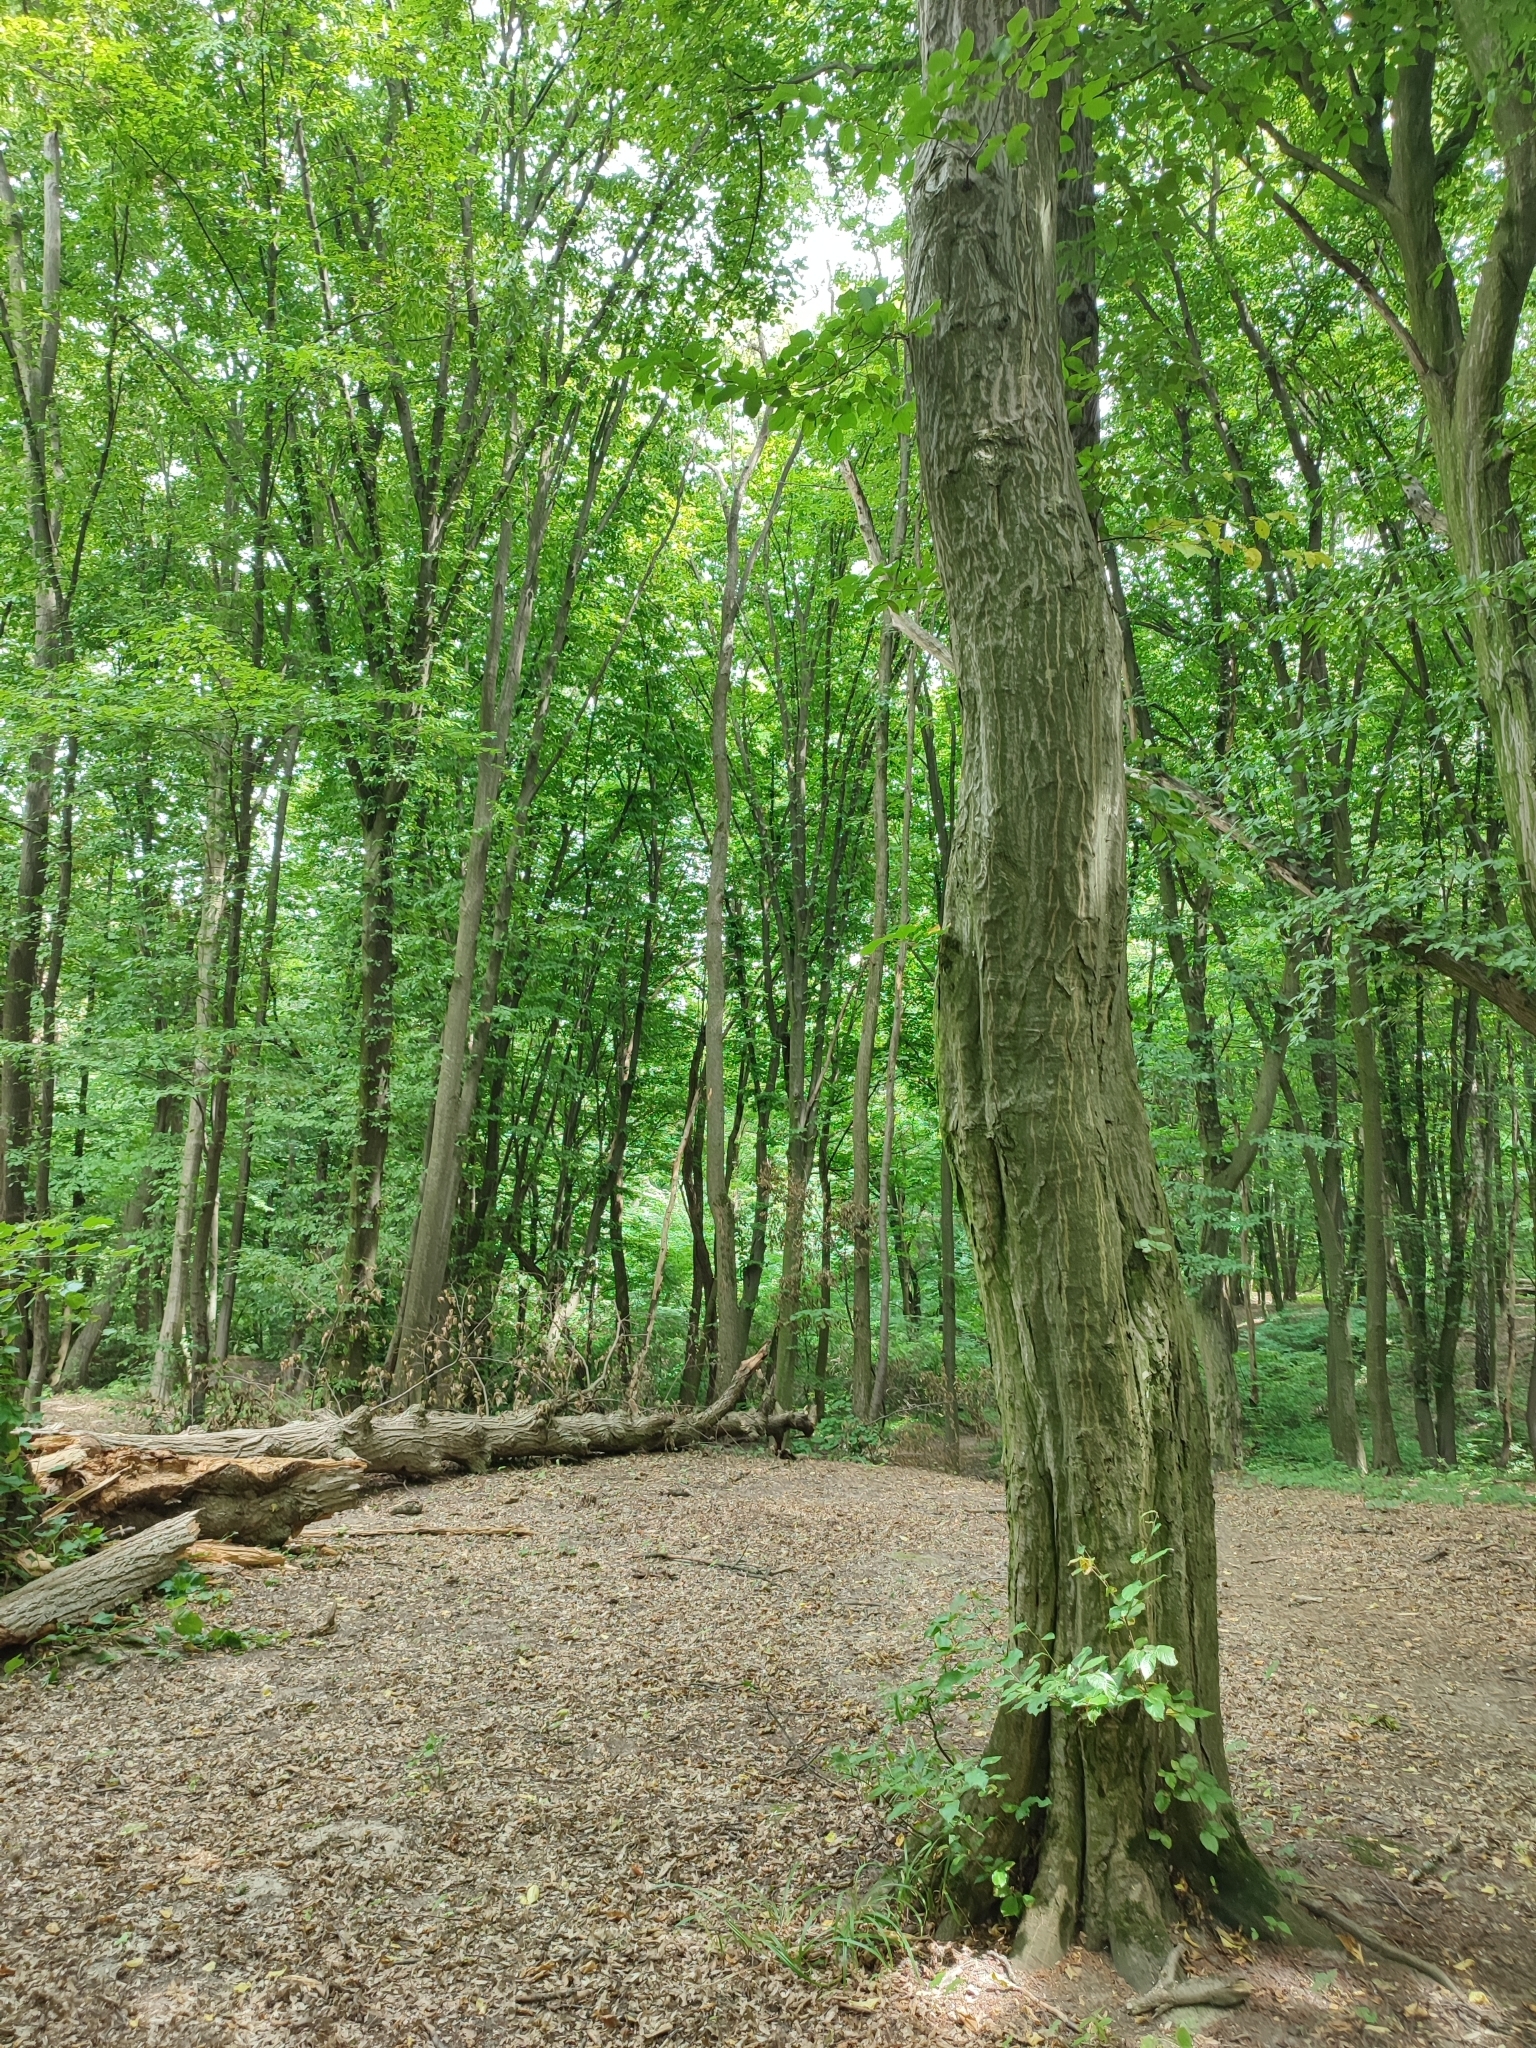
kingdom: Plantae
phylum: Tracheophyta
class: Magnoliopsida
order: Fagales
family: Betulaceae
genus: Carpinus
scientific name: Carpinus betulus
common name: Hornbeam
